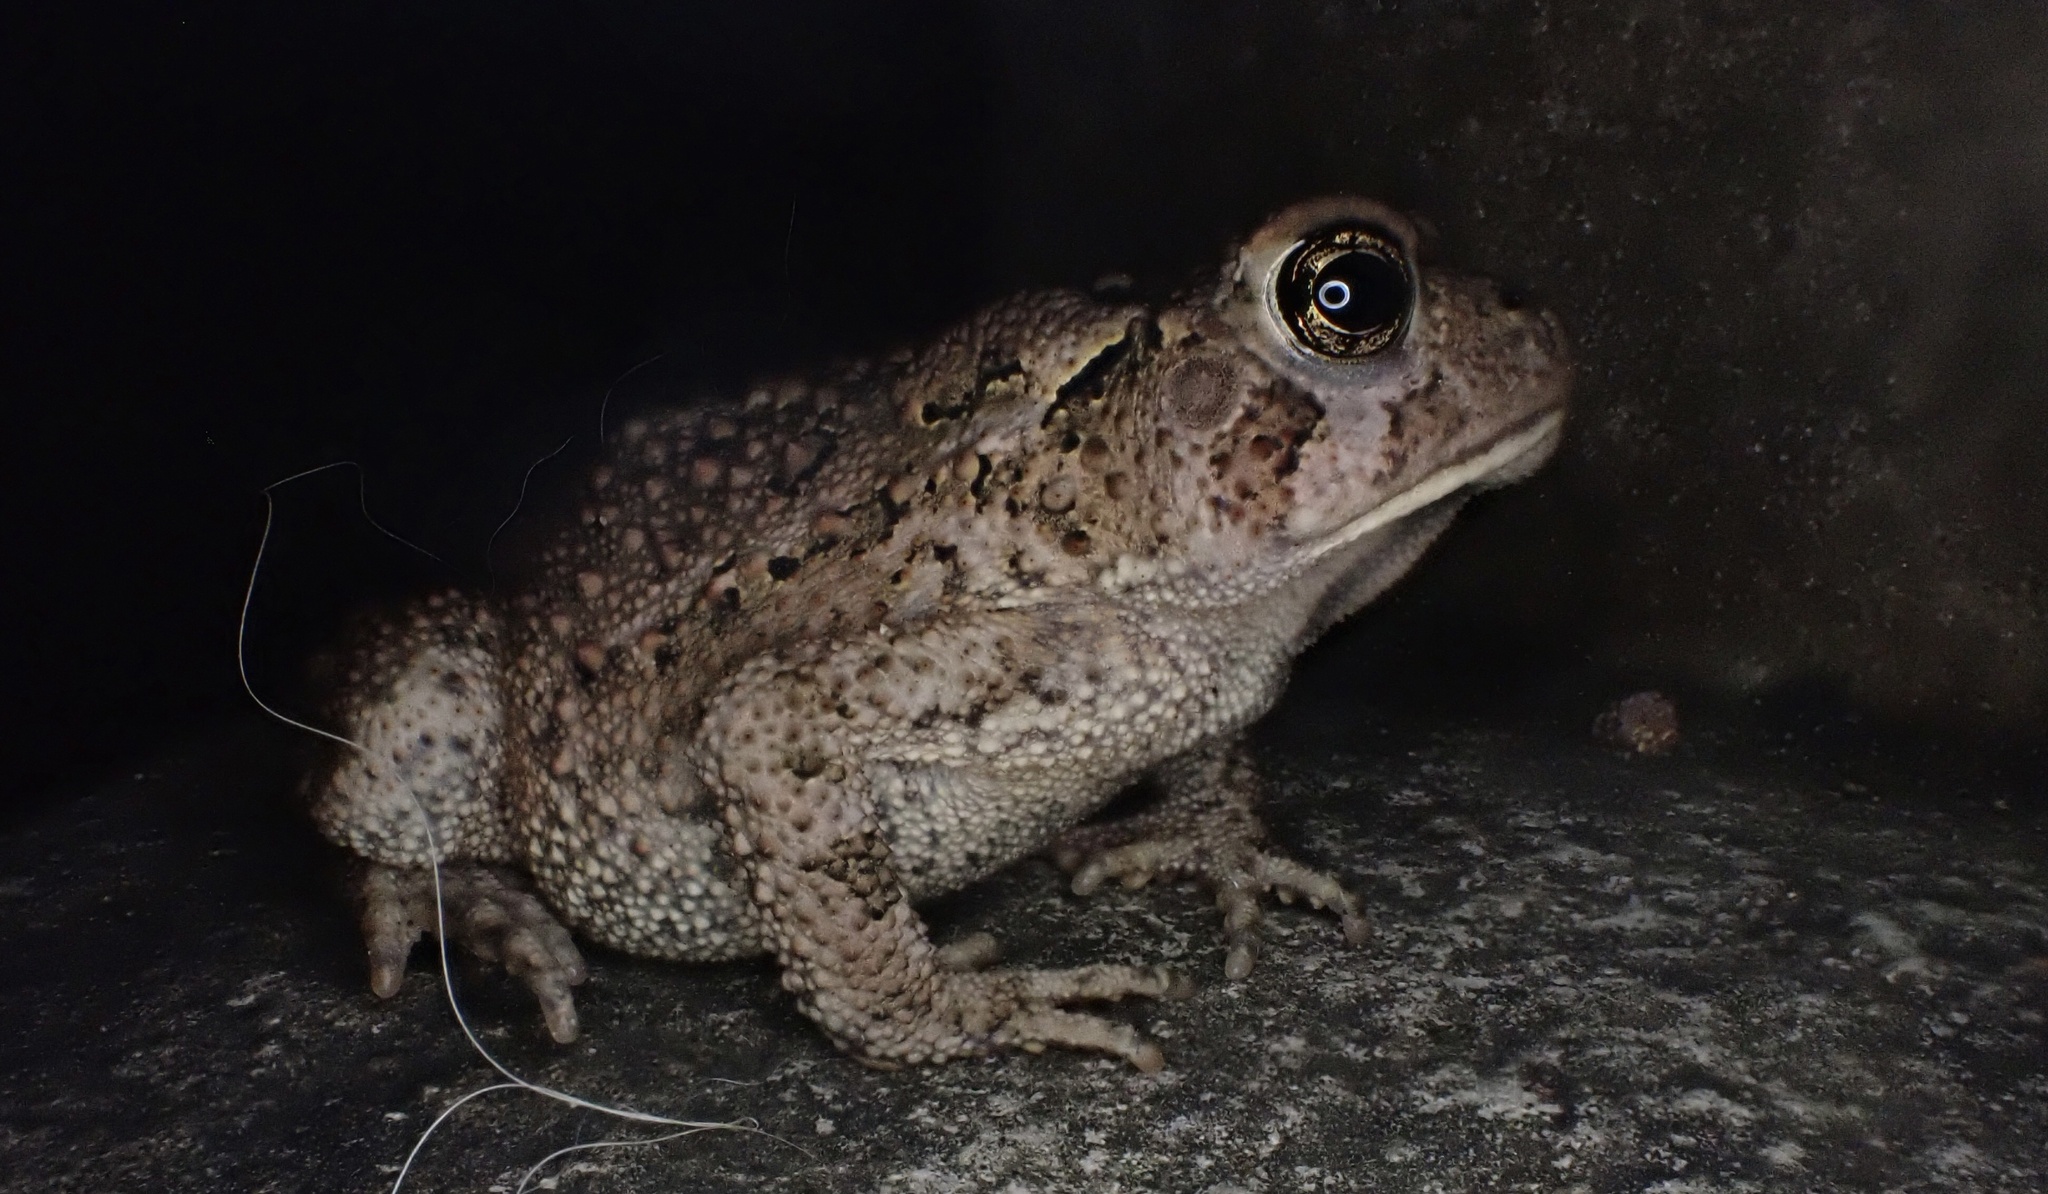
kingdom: Animalia
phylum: Chordata
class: Amphibia
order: Anura
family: Bufonidae
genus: Anaxyrus
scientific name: Anaxyrus americanus
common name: American toad
